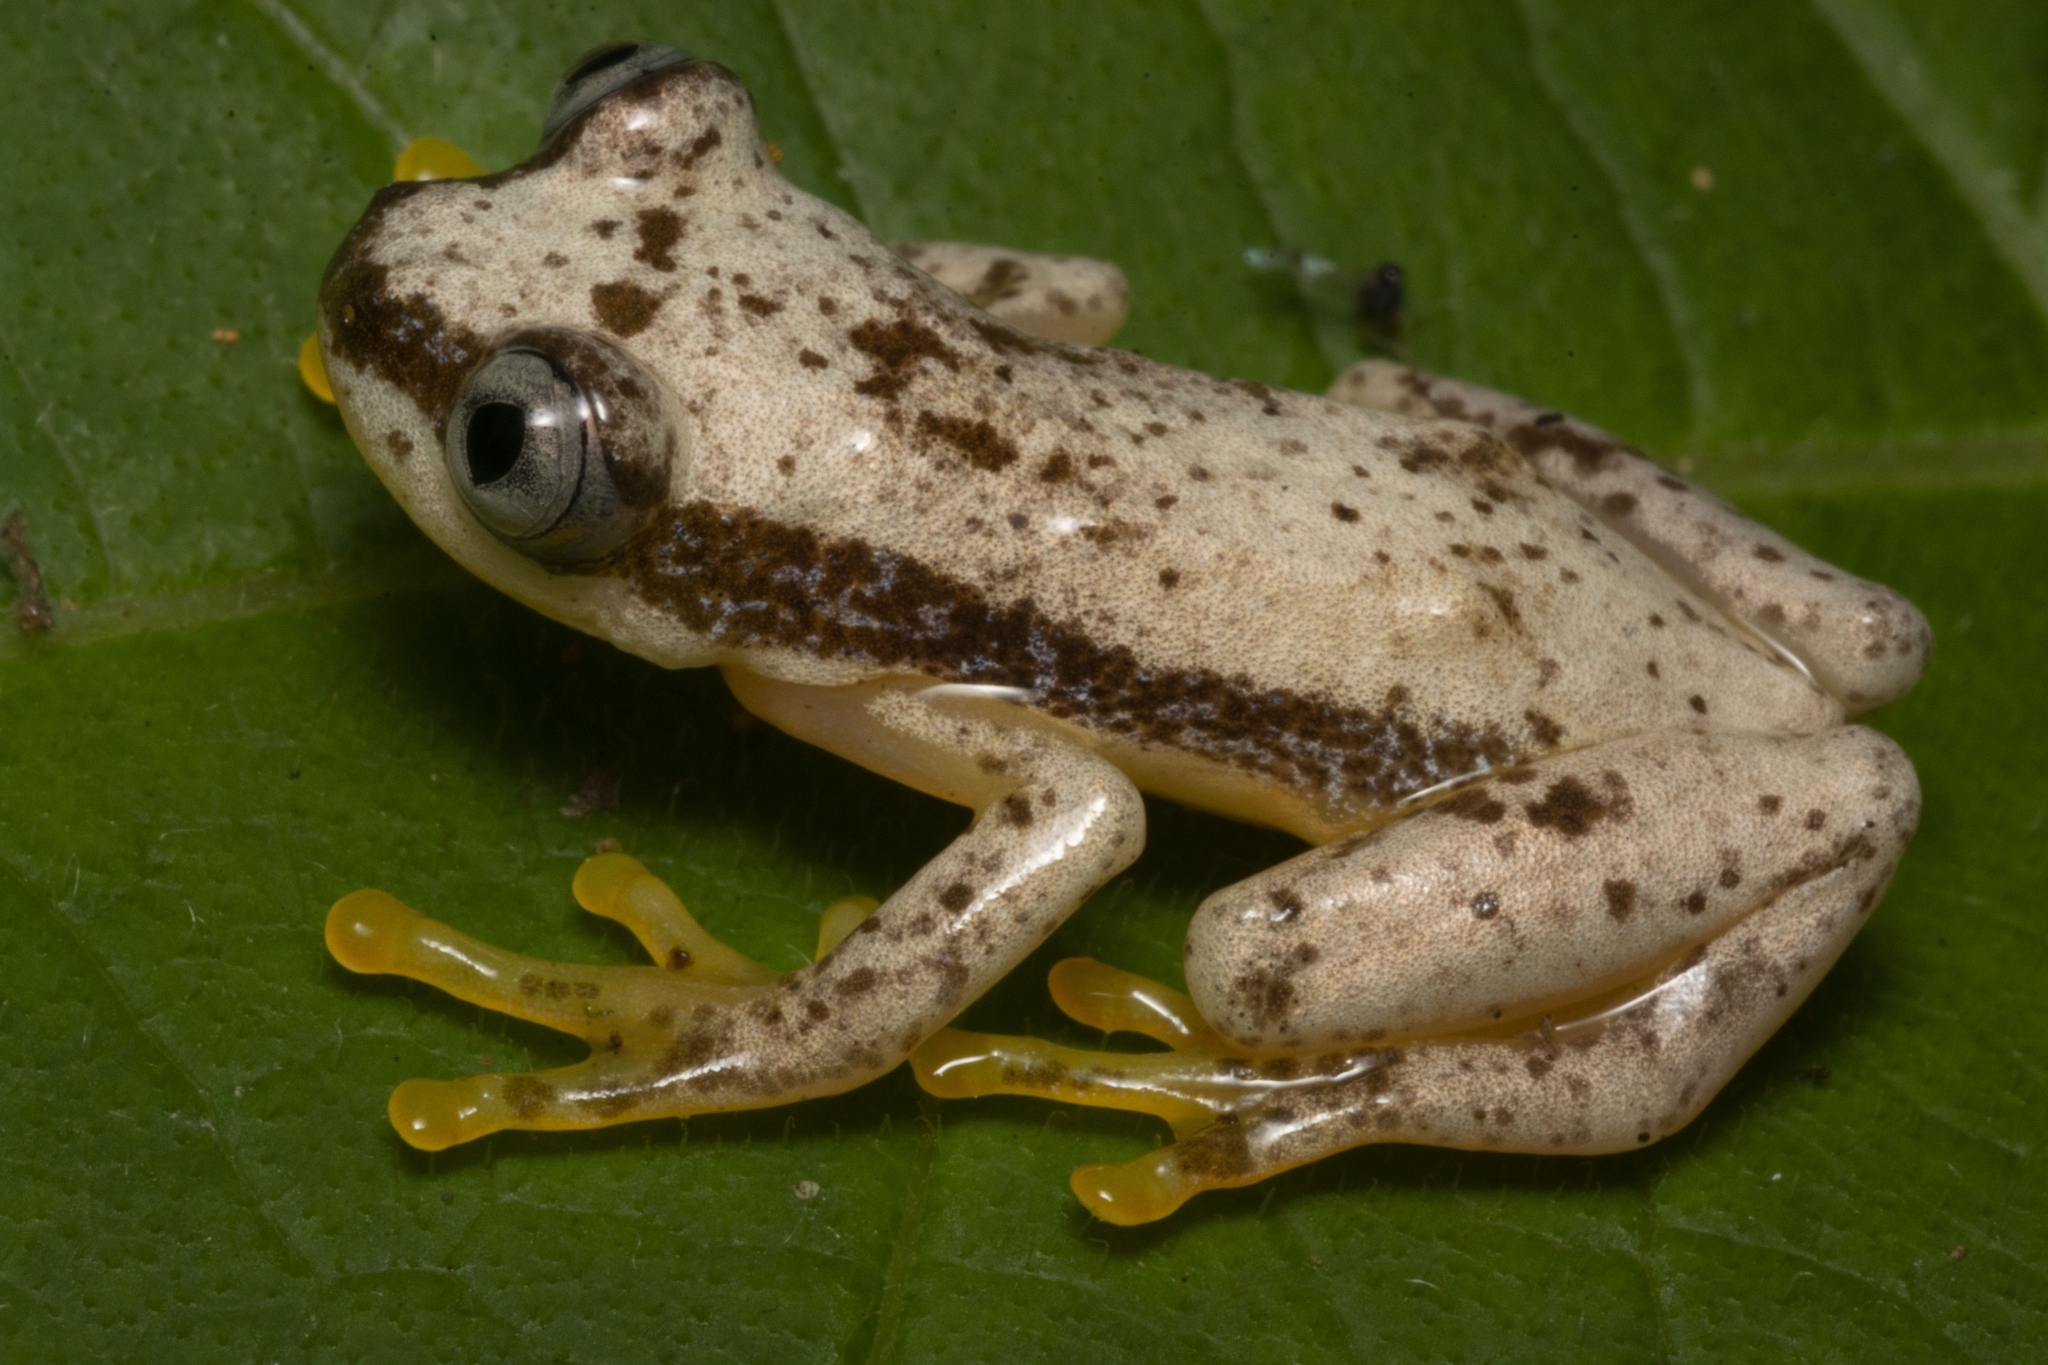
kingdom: Animalia
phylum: Chordata
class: Amphibia
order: Anura
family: Hyperoliidae
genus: Afrixalus
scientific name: Afrixalus uluguruensis
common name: Uluguru banana frog
